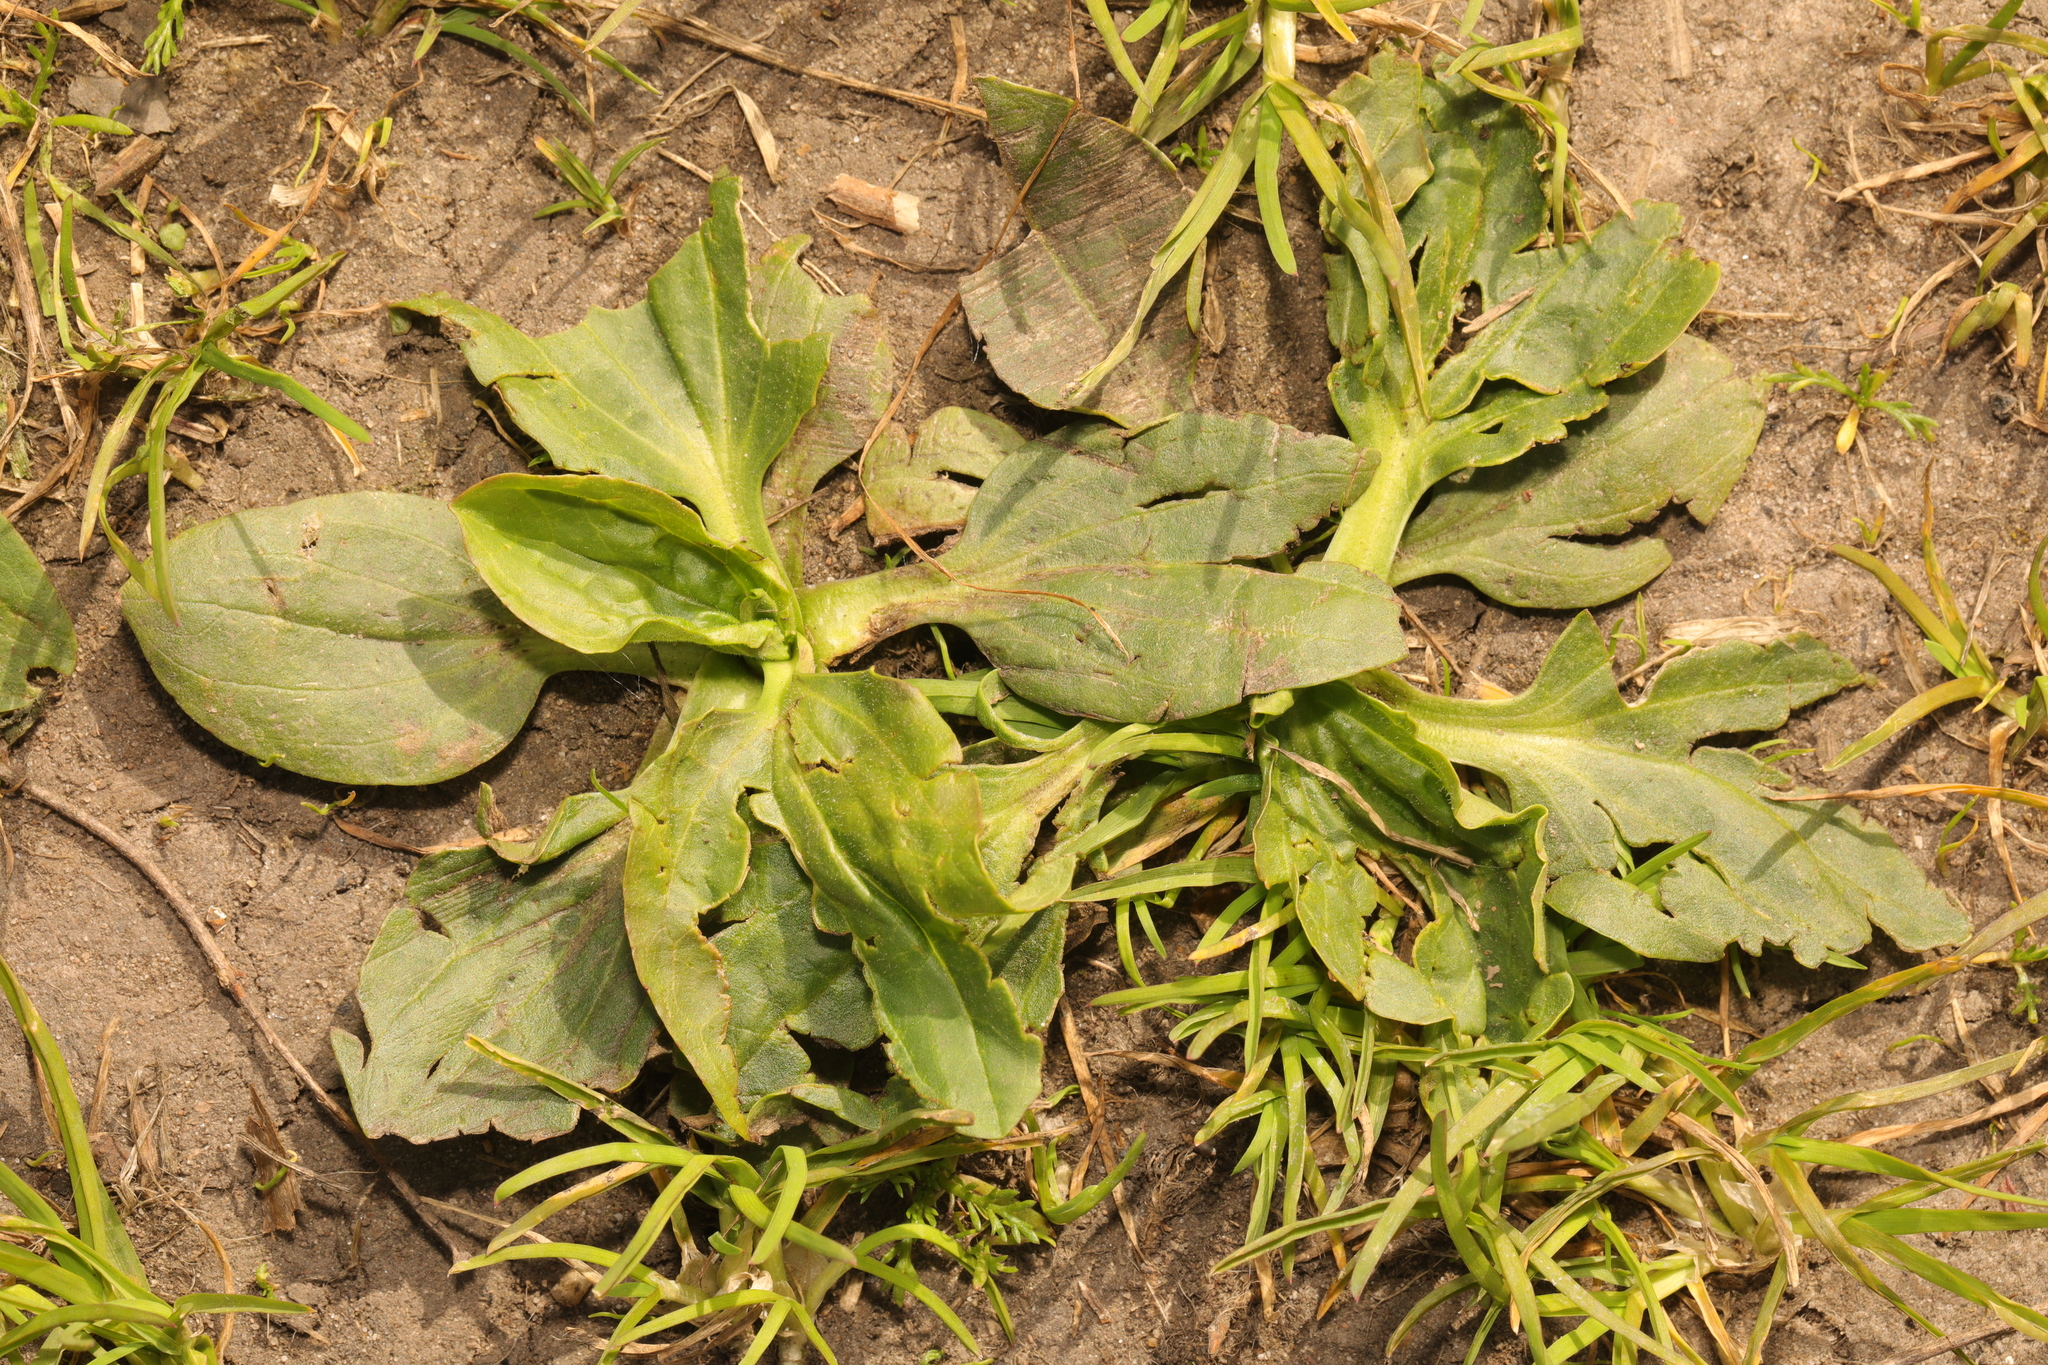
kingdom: Plantae
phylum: Tracheophyta
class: Magnoliopsida
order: Lamiales
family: Plantaginaceae
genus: Plantago
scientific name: Plantago major
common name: Common plantain
